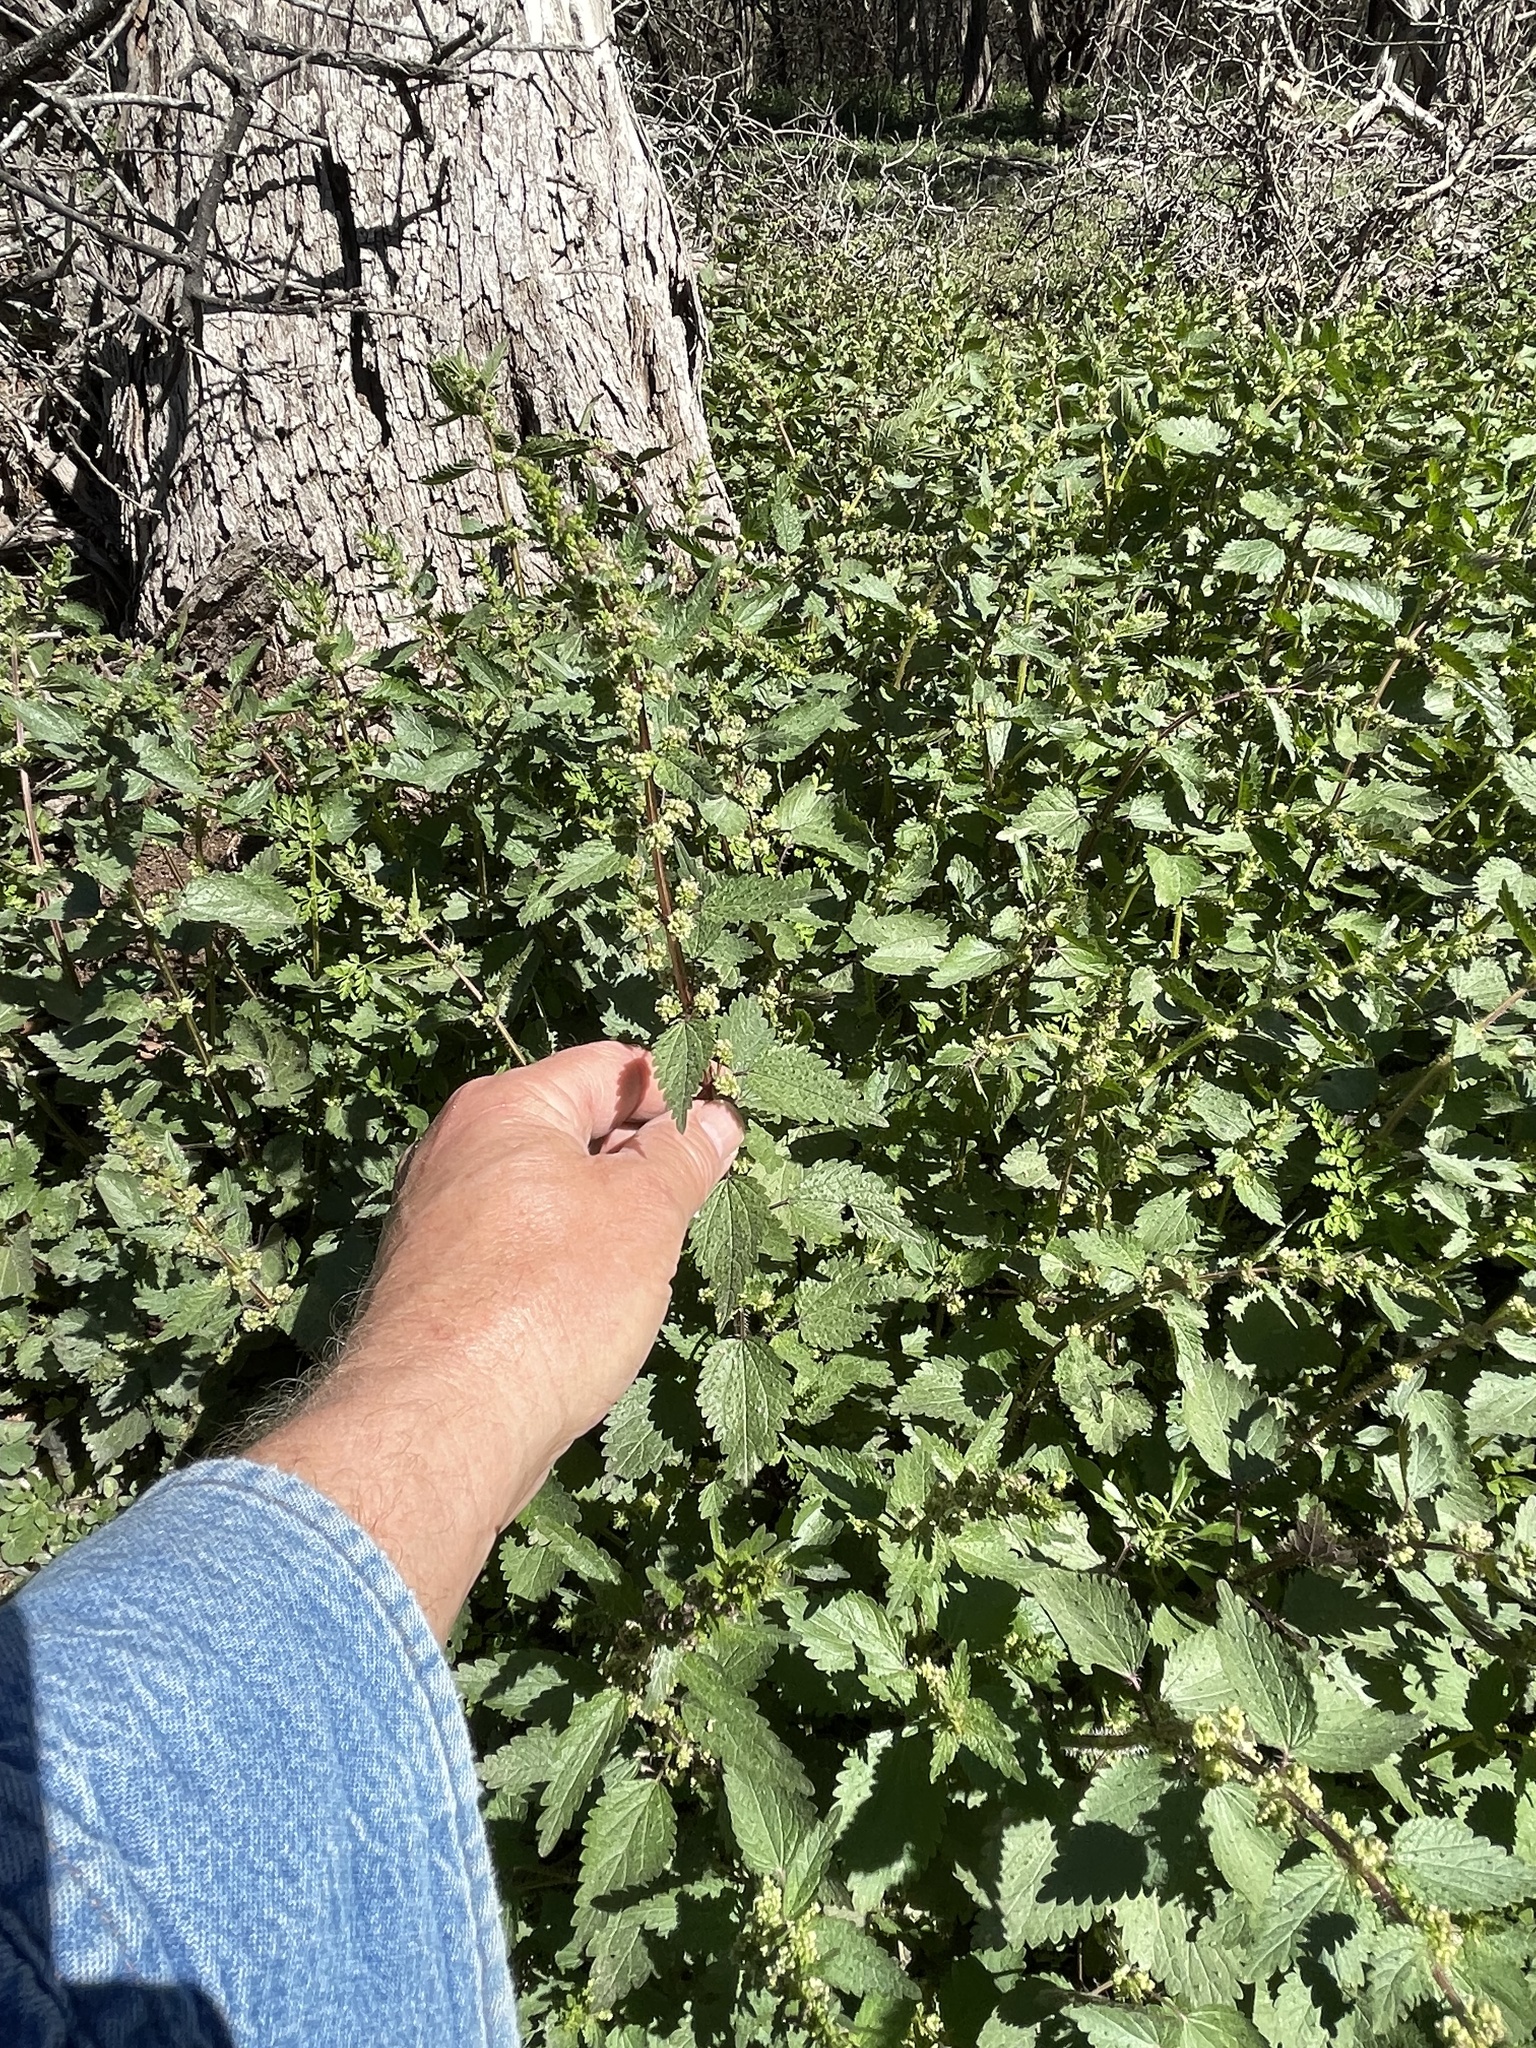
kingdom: Plantae
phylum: Tracheophyta
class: Magnoliopsida
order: Rosales
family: Urticaceae
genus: Urtica
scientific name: Urtica chamaedryoides
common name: Heart-leaf nettle
